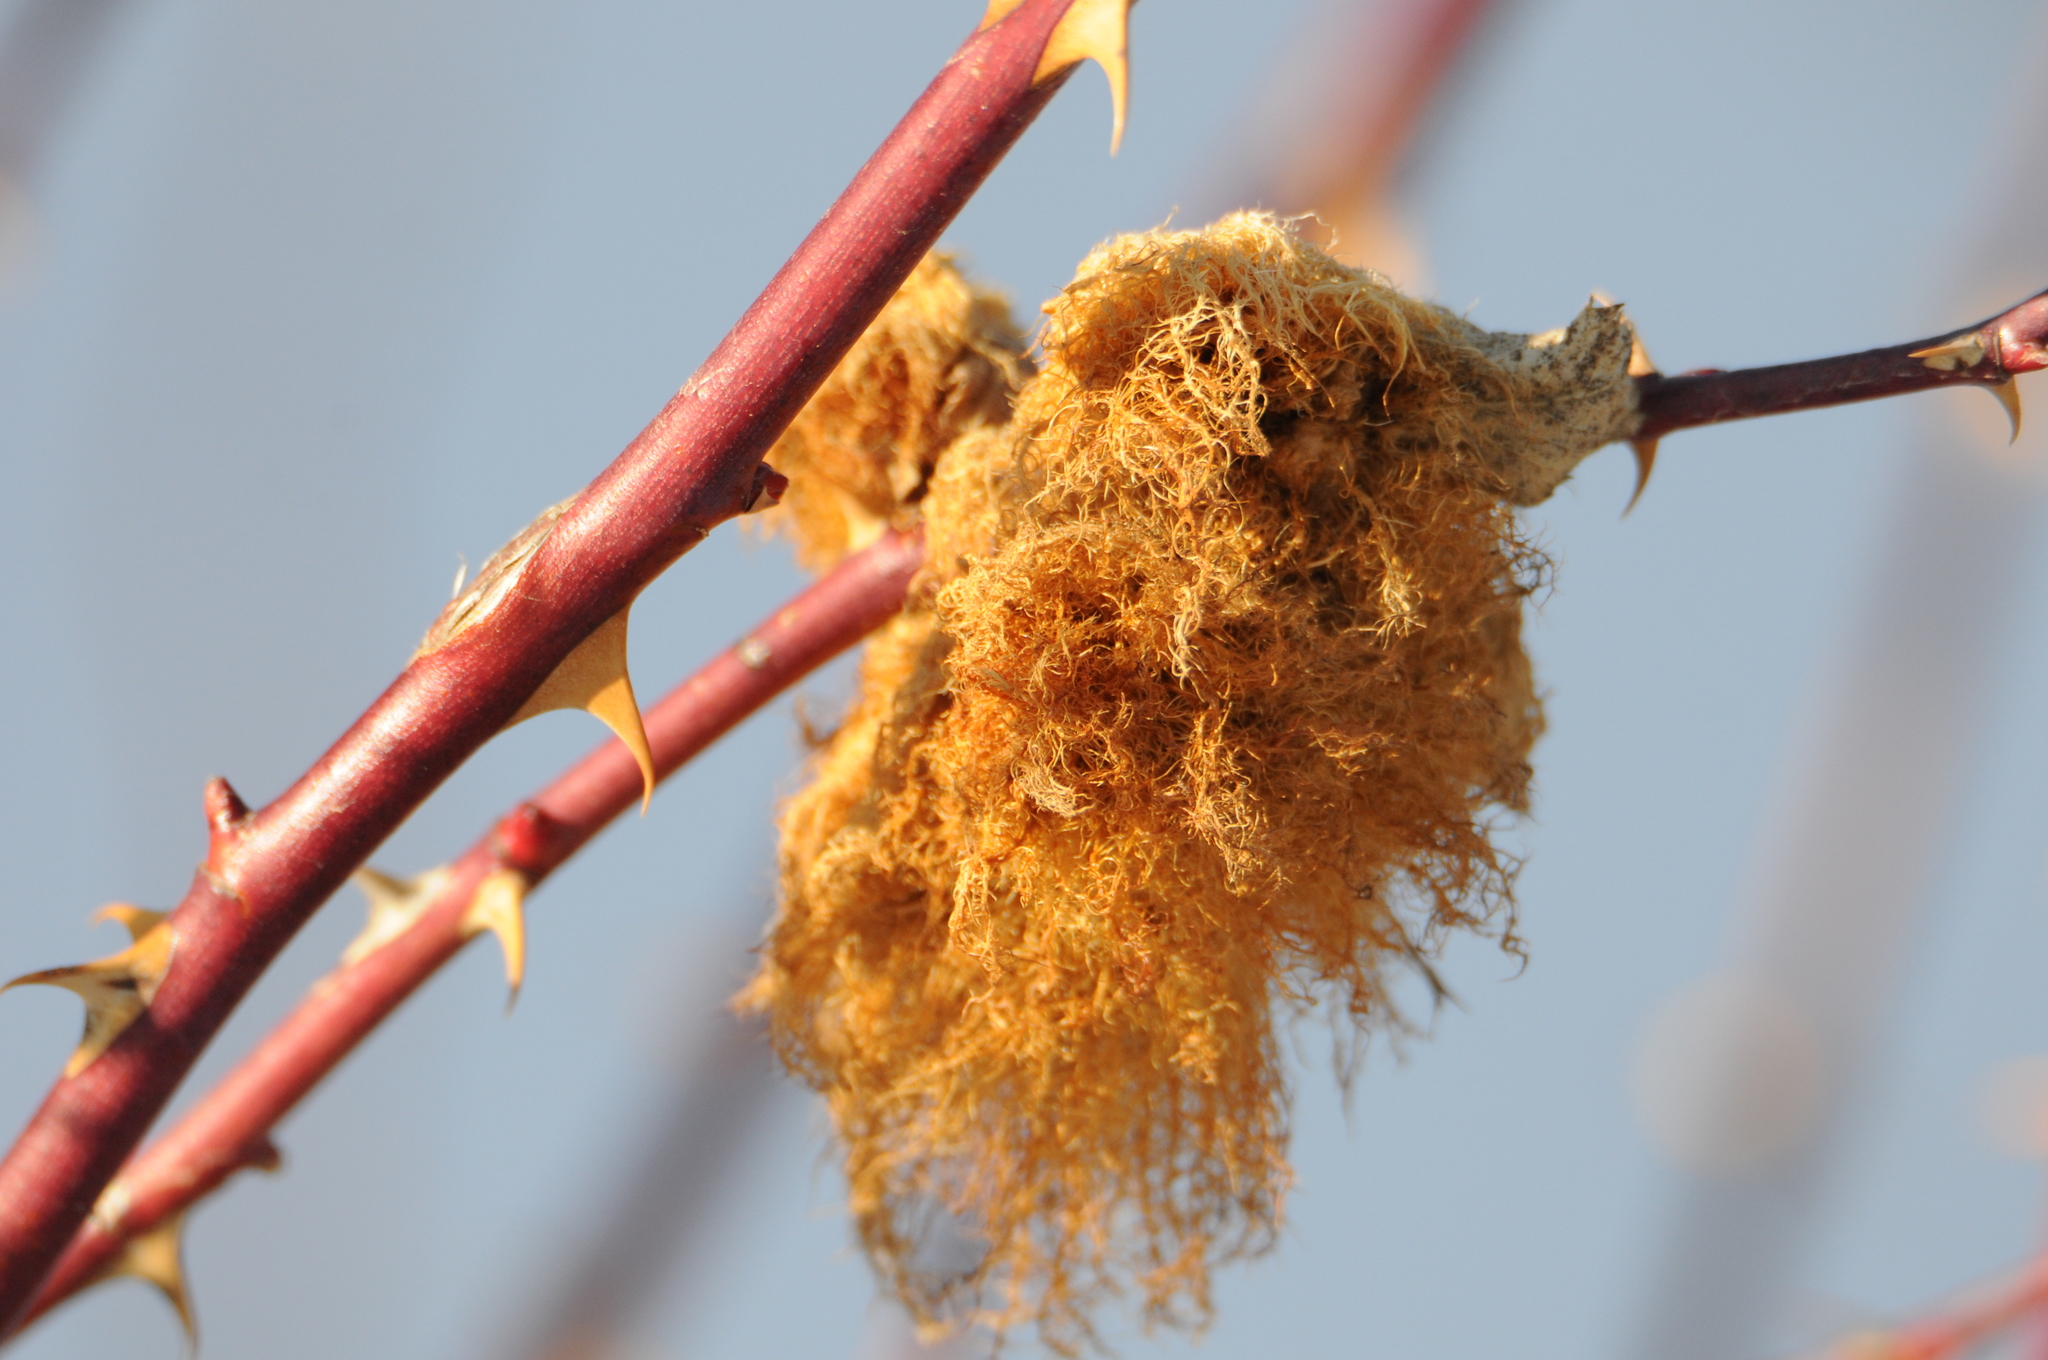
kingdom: Animalia
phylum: Arthropoda
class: Insecta
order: Hymenoptera
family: Cynipidae
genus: Diplolepis
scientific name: Diplolepis rosae
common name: Bedeguar gall
